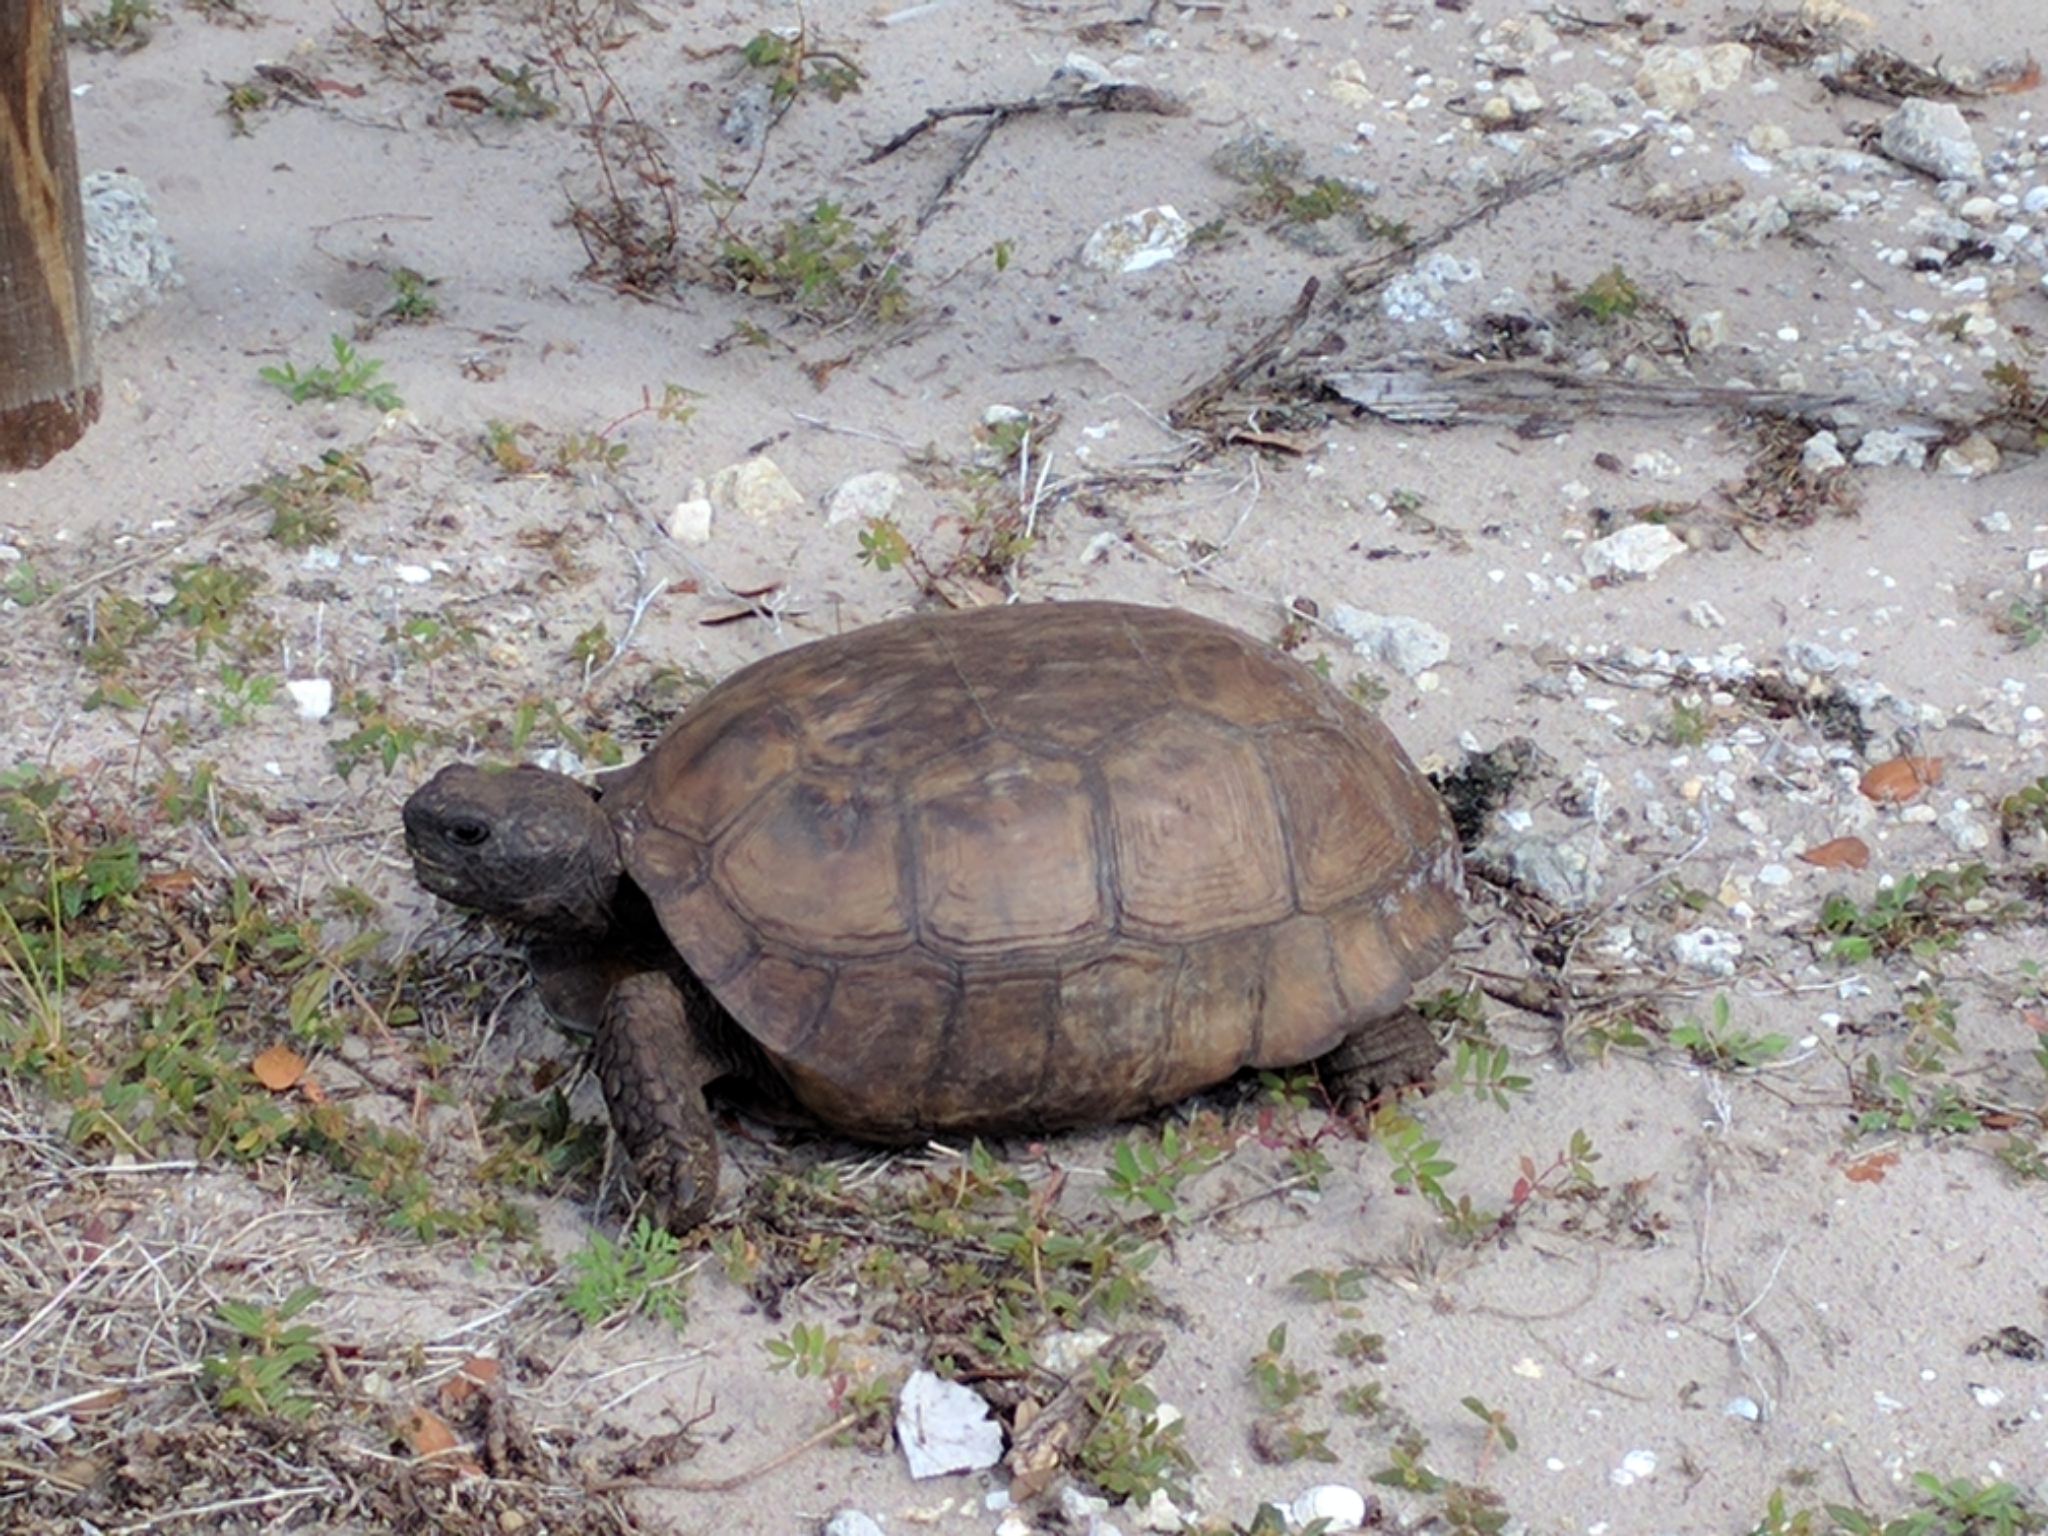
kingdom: Animalia
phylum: Chordata
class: Testudines
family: Testudinidae
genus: Gopherus
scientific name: Gopherus polyphemus
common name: Florida gopher tortoise
